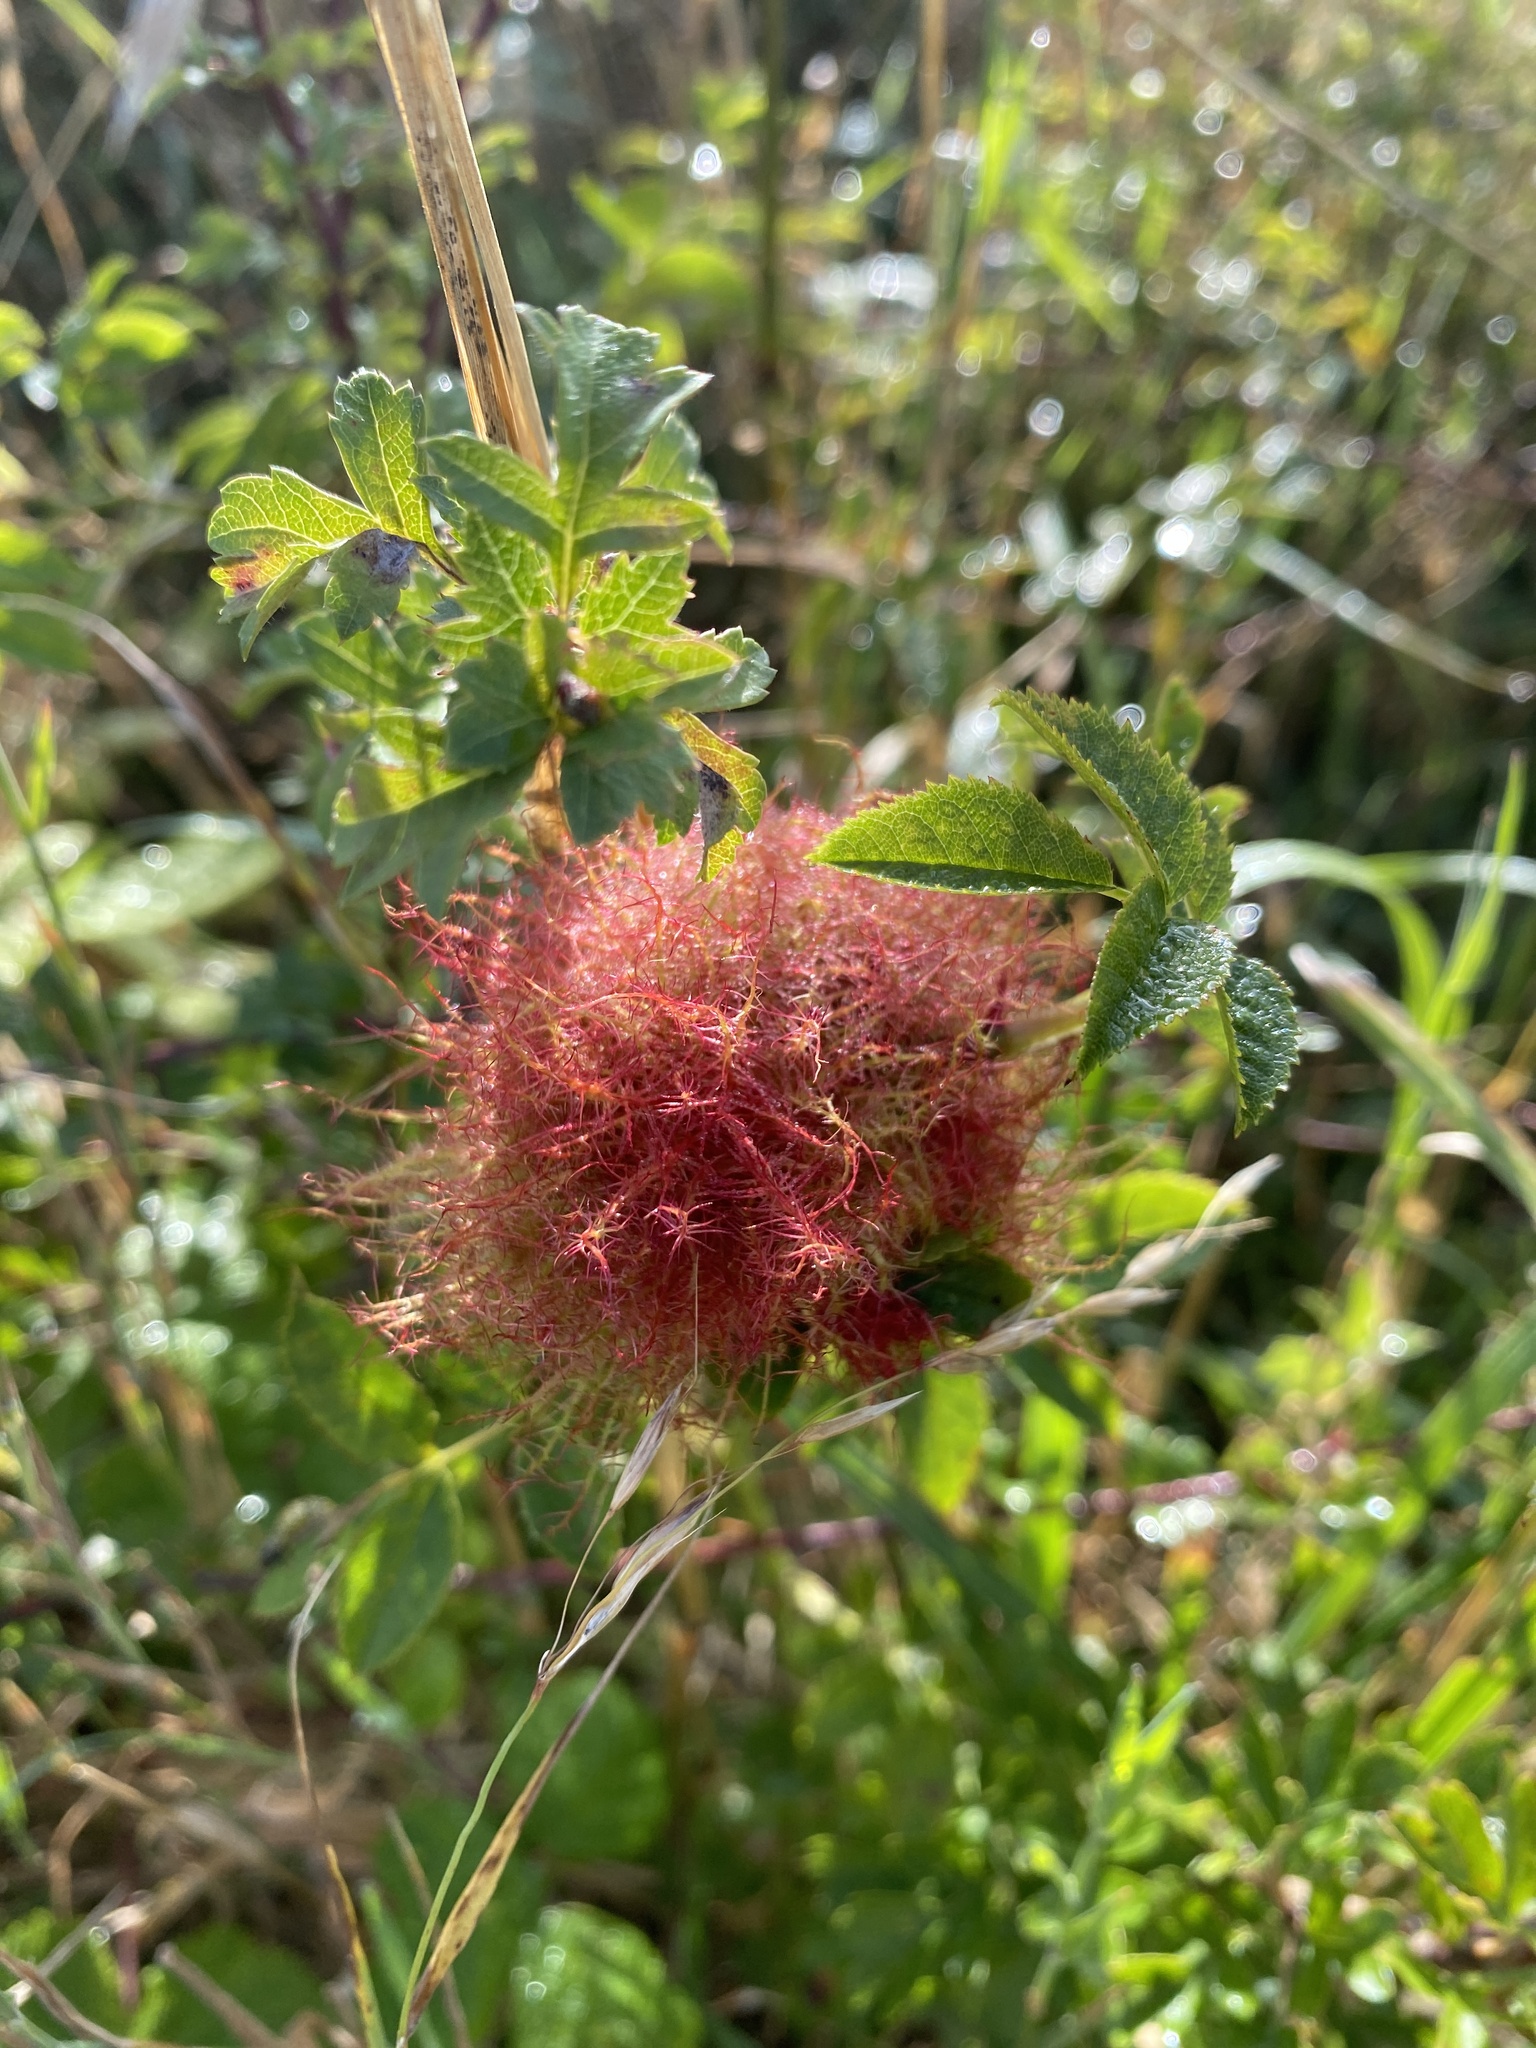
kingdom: Animalia
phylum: Arthropoda
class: Insecta
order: Hymenoptera
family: Cynipidae
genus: Diplolepis
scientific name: Diplolepis rosae
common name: Bedeguar gall
